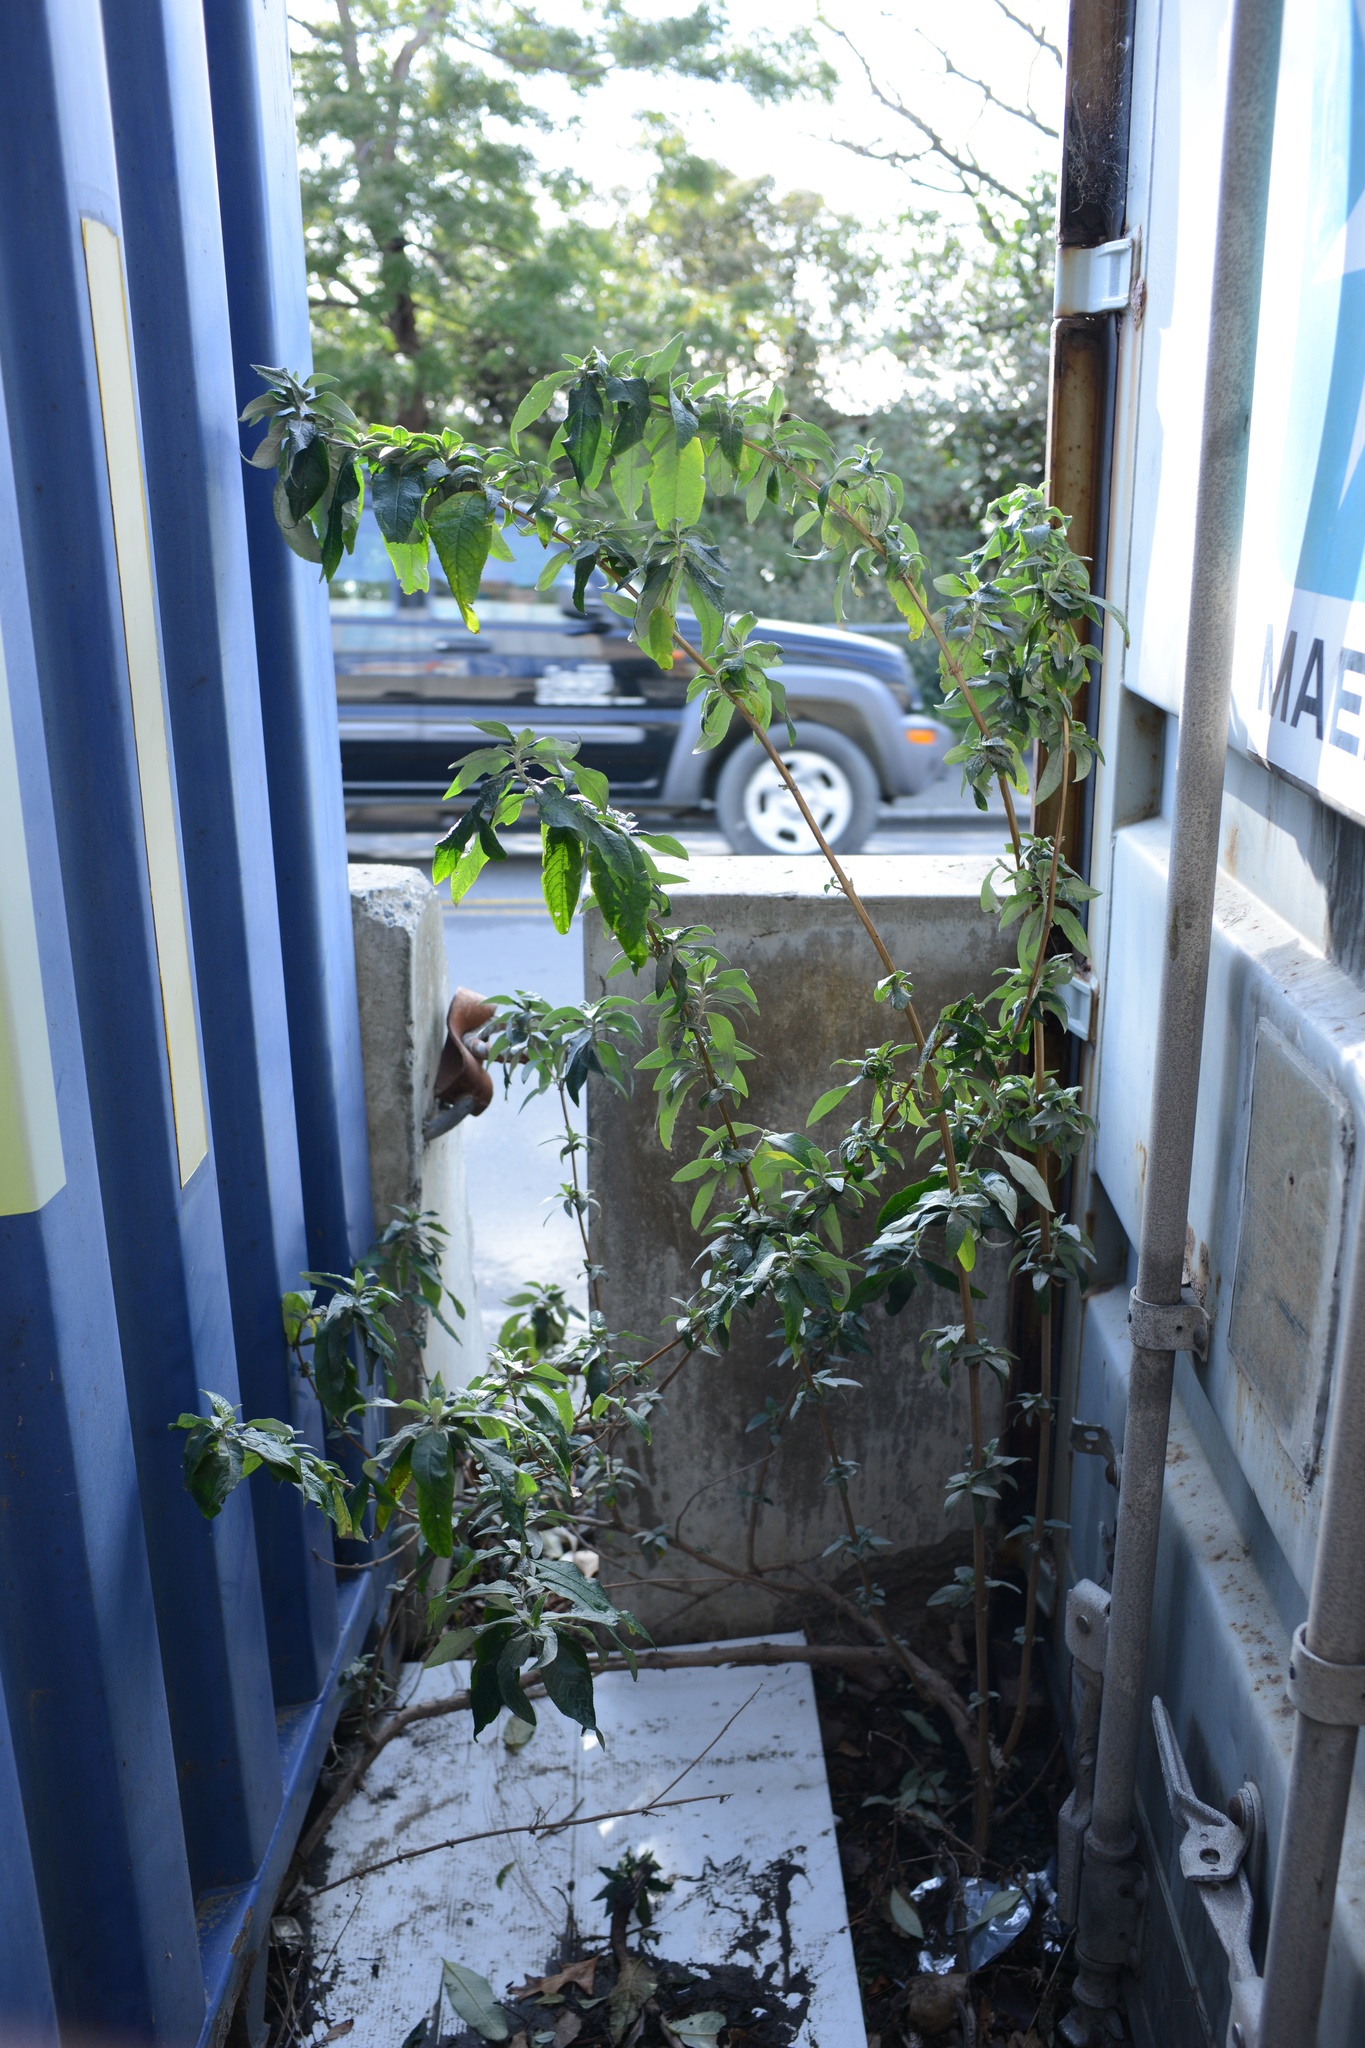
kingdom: Plantae
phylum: Tracheophyta
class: Magnoliopsida
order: Lamiales
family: Scrophulariaceae
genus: Buddleja
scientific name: Buddleja davidii
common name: Butterfly-bush
